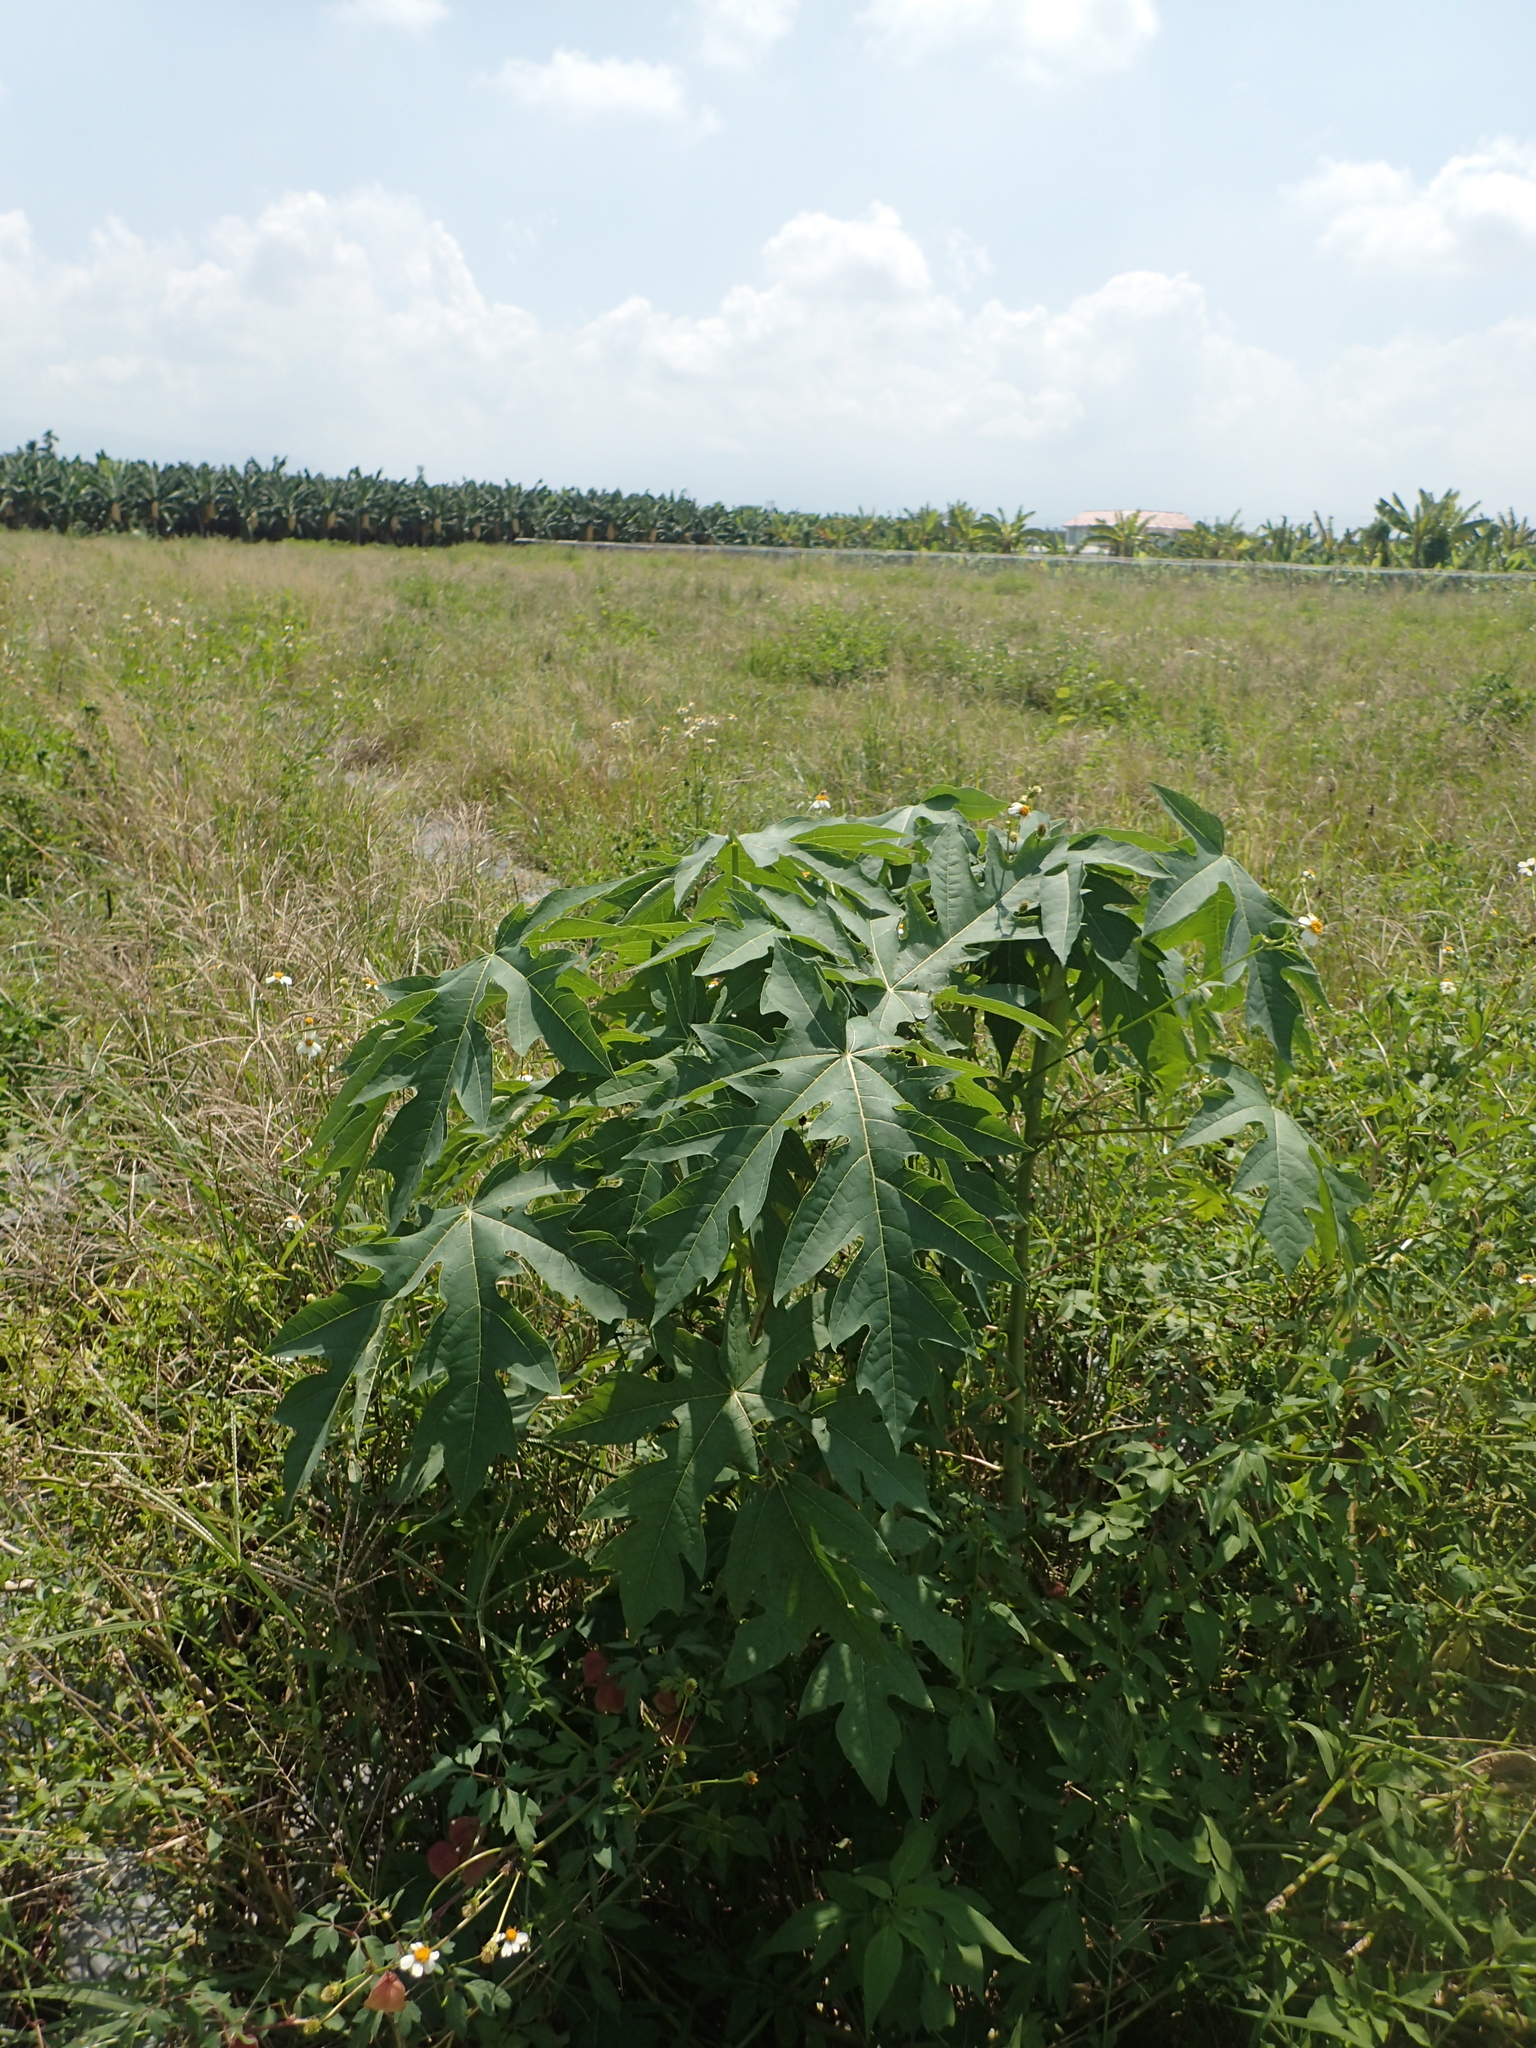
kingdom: Plantae
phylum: Tracheophyta
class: Magnoliopsida
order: Brassicales
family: Caricaceae
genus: Carica
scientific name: Carica papaya
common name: Papaya
